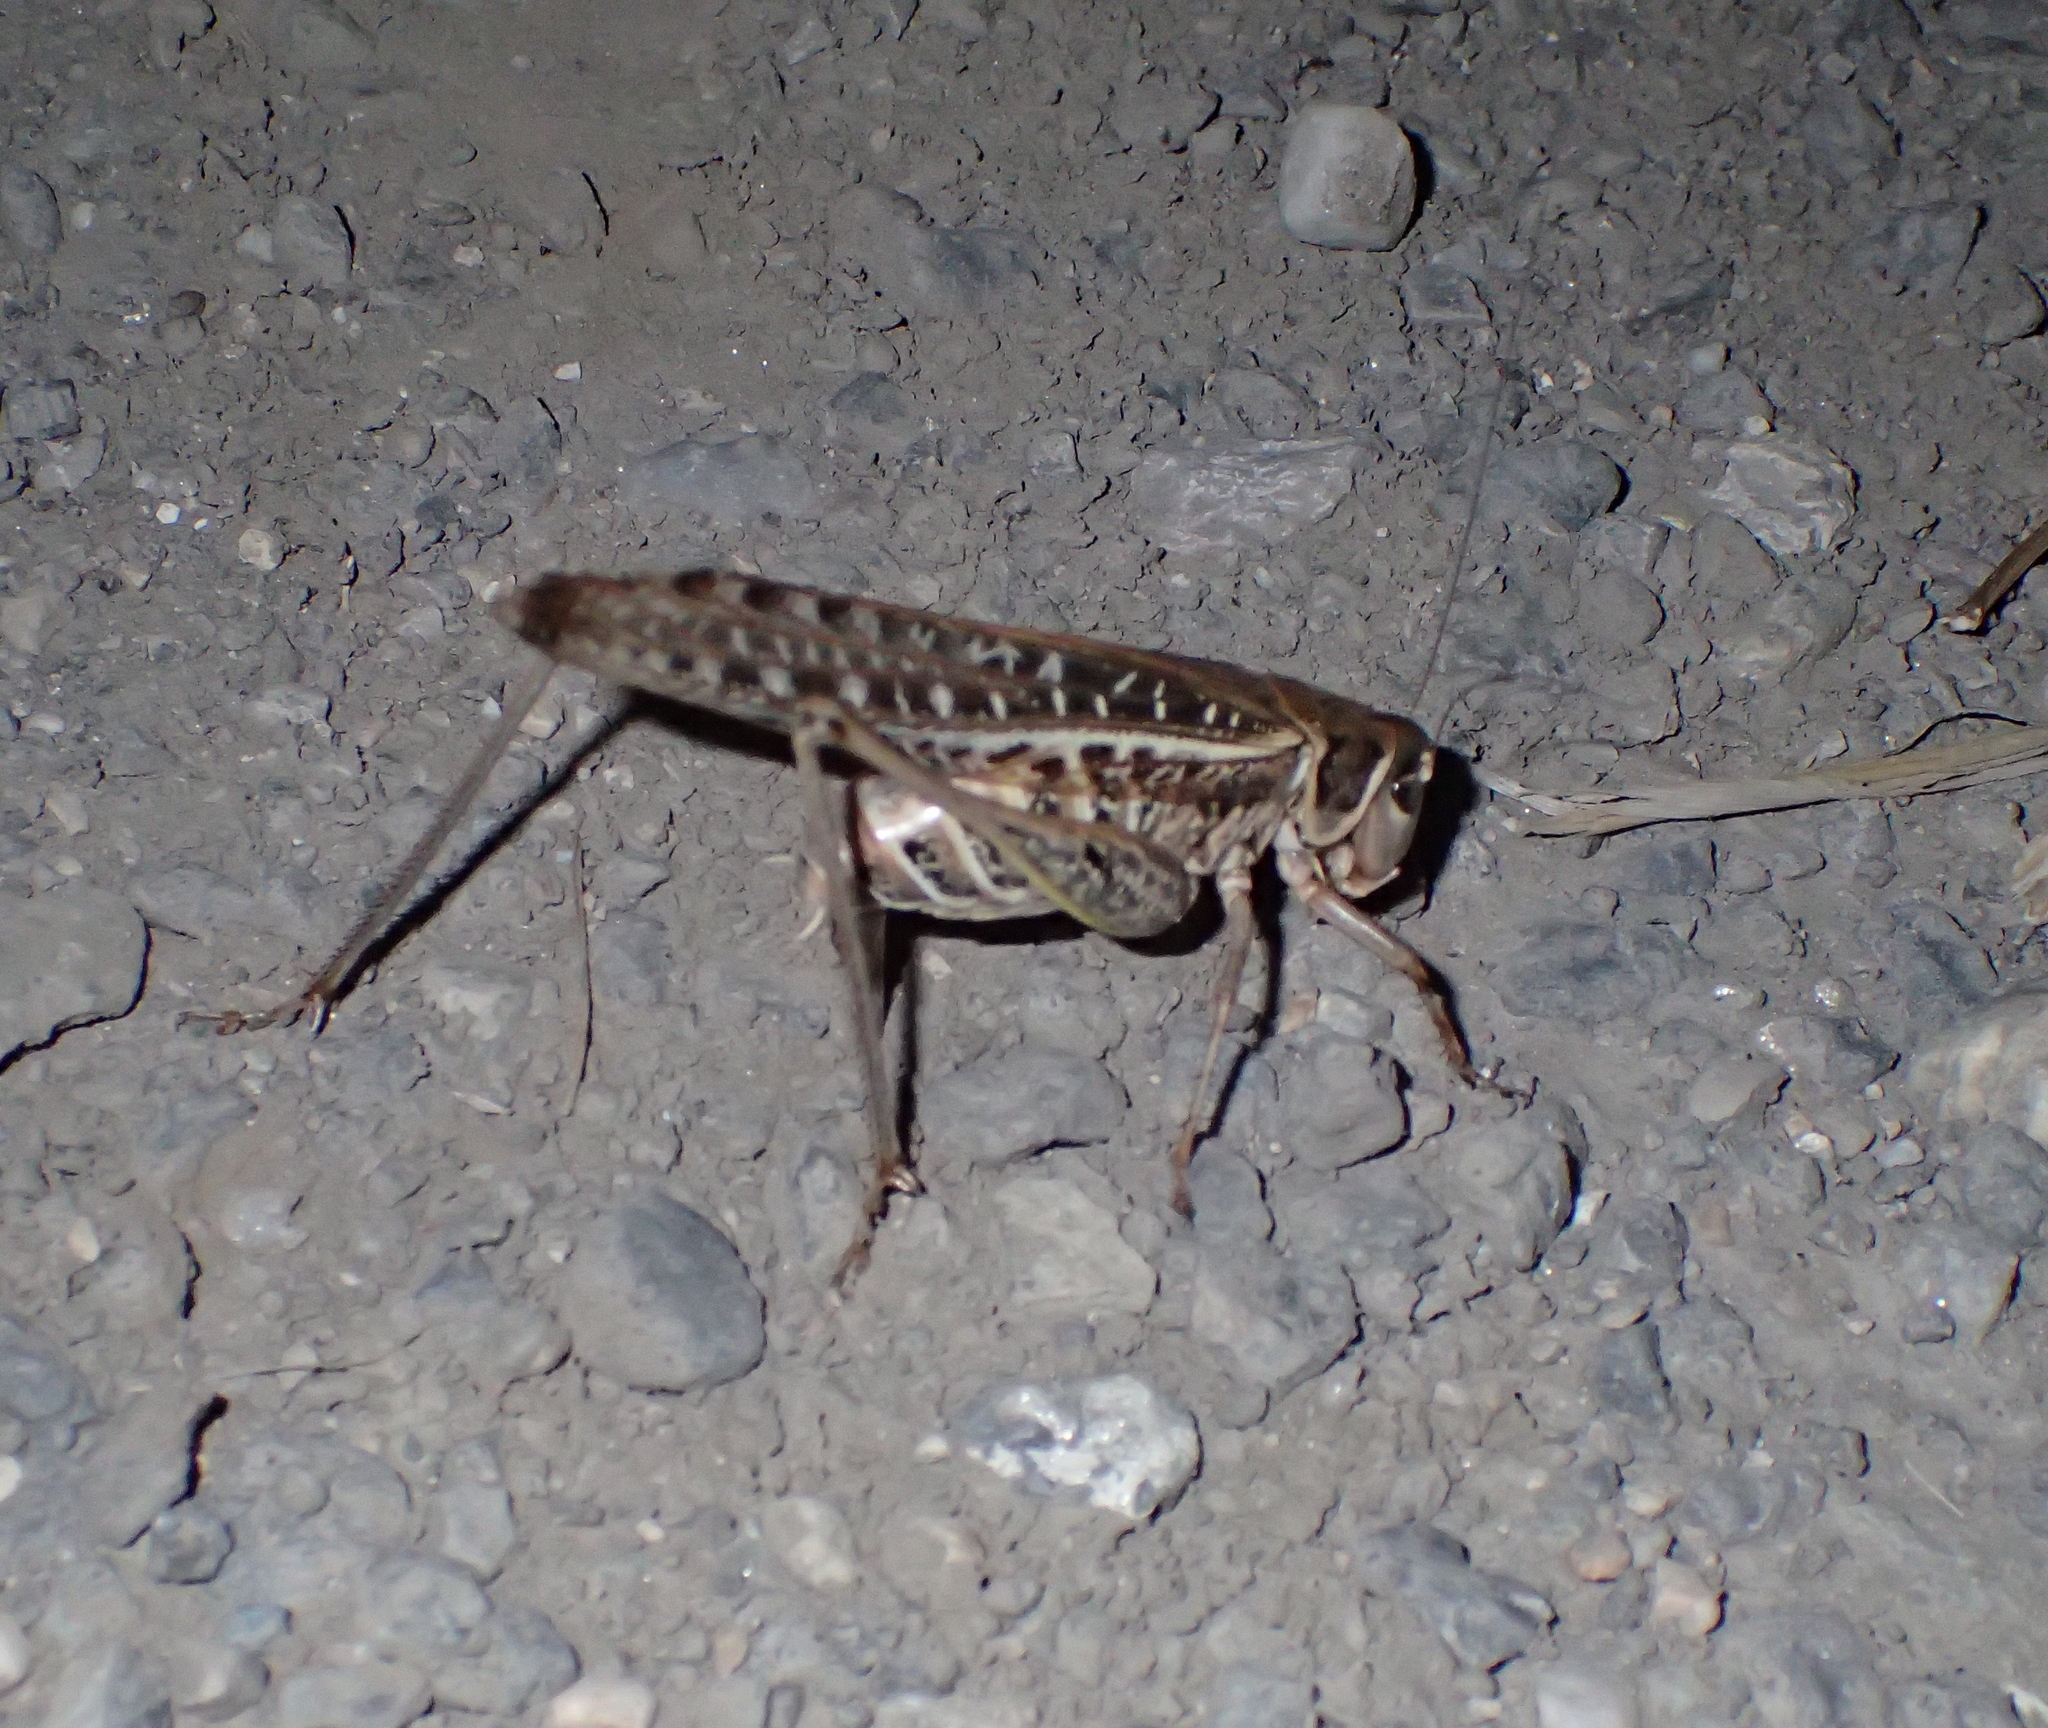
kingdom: Animalia
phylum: Arthropoda
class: Insecta
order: Orthoptera
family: Tettigoniidae
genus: Decticus
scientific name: Decticus albifrons
